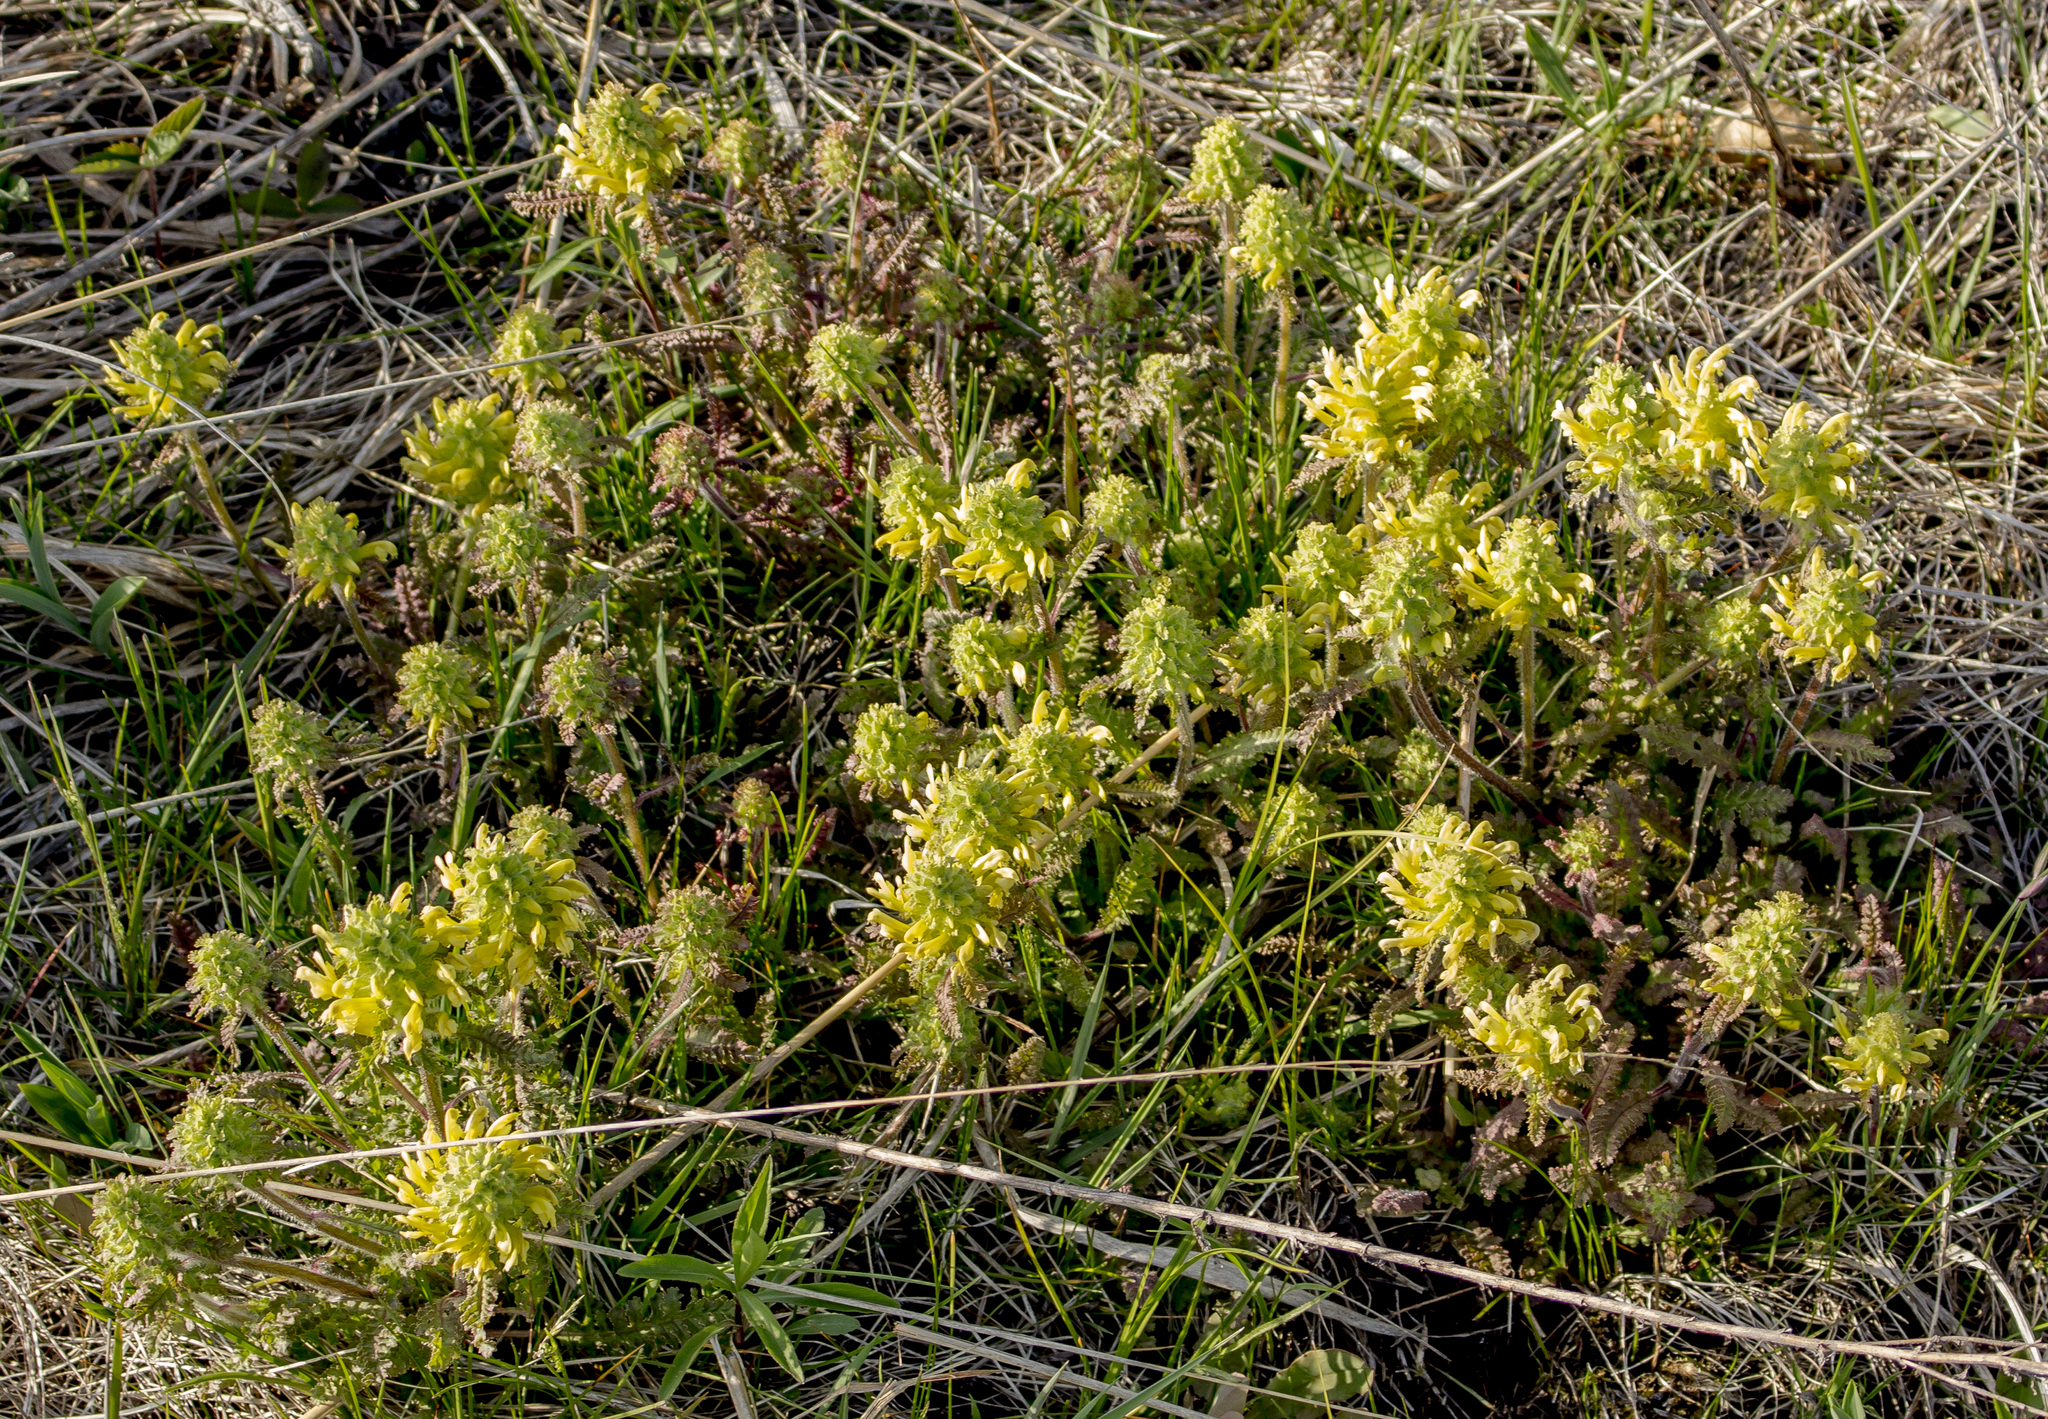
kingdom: Plantae
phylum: Tracheophyta
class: Magnoliopsida
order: Lamiales
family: Orobanchaceae
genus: Pedicularis
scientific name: Pedicularis canadensis
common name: Early lousewort
